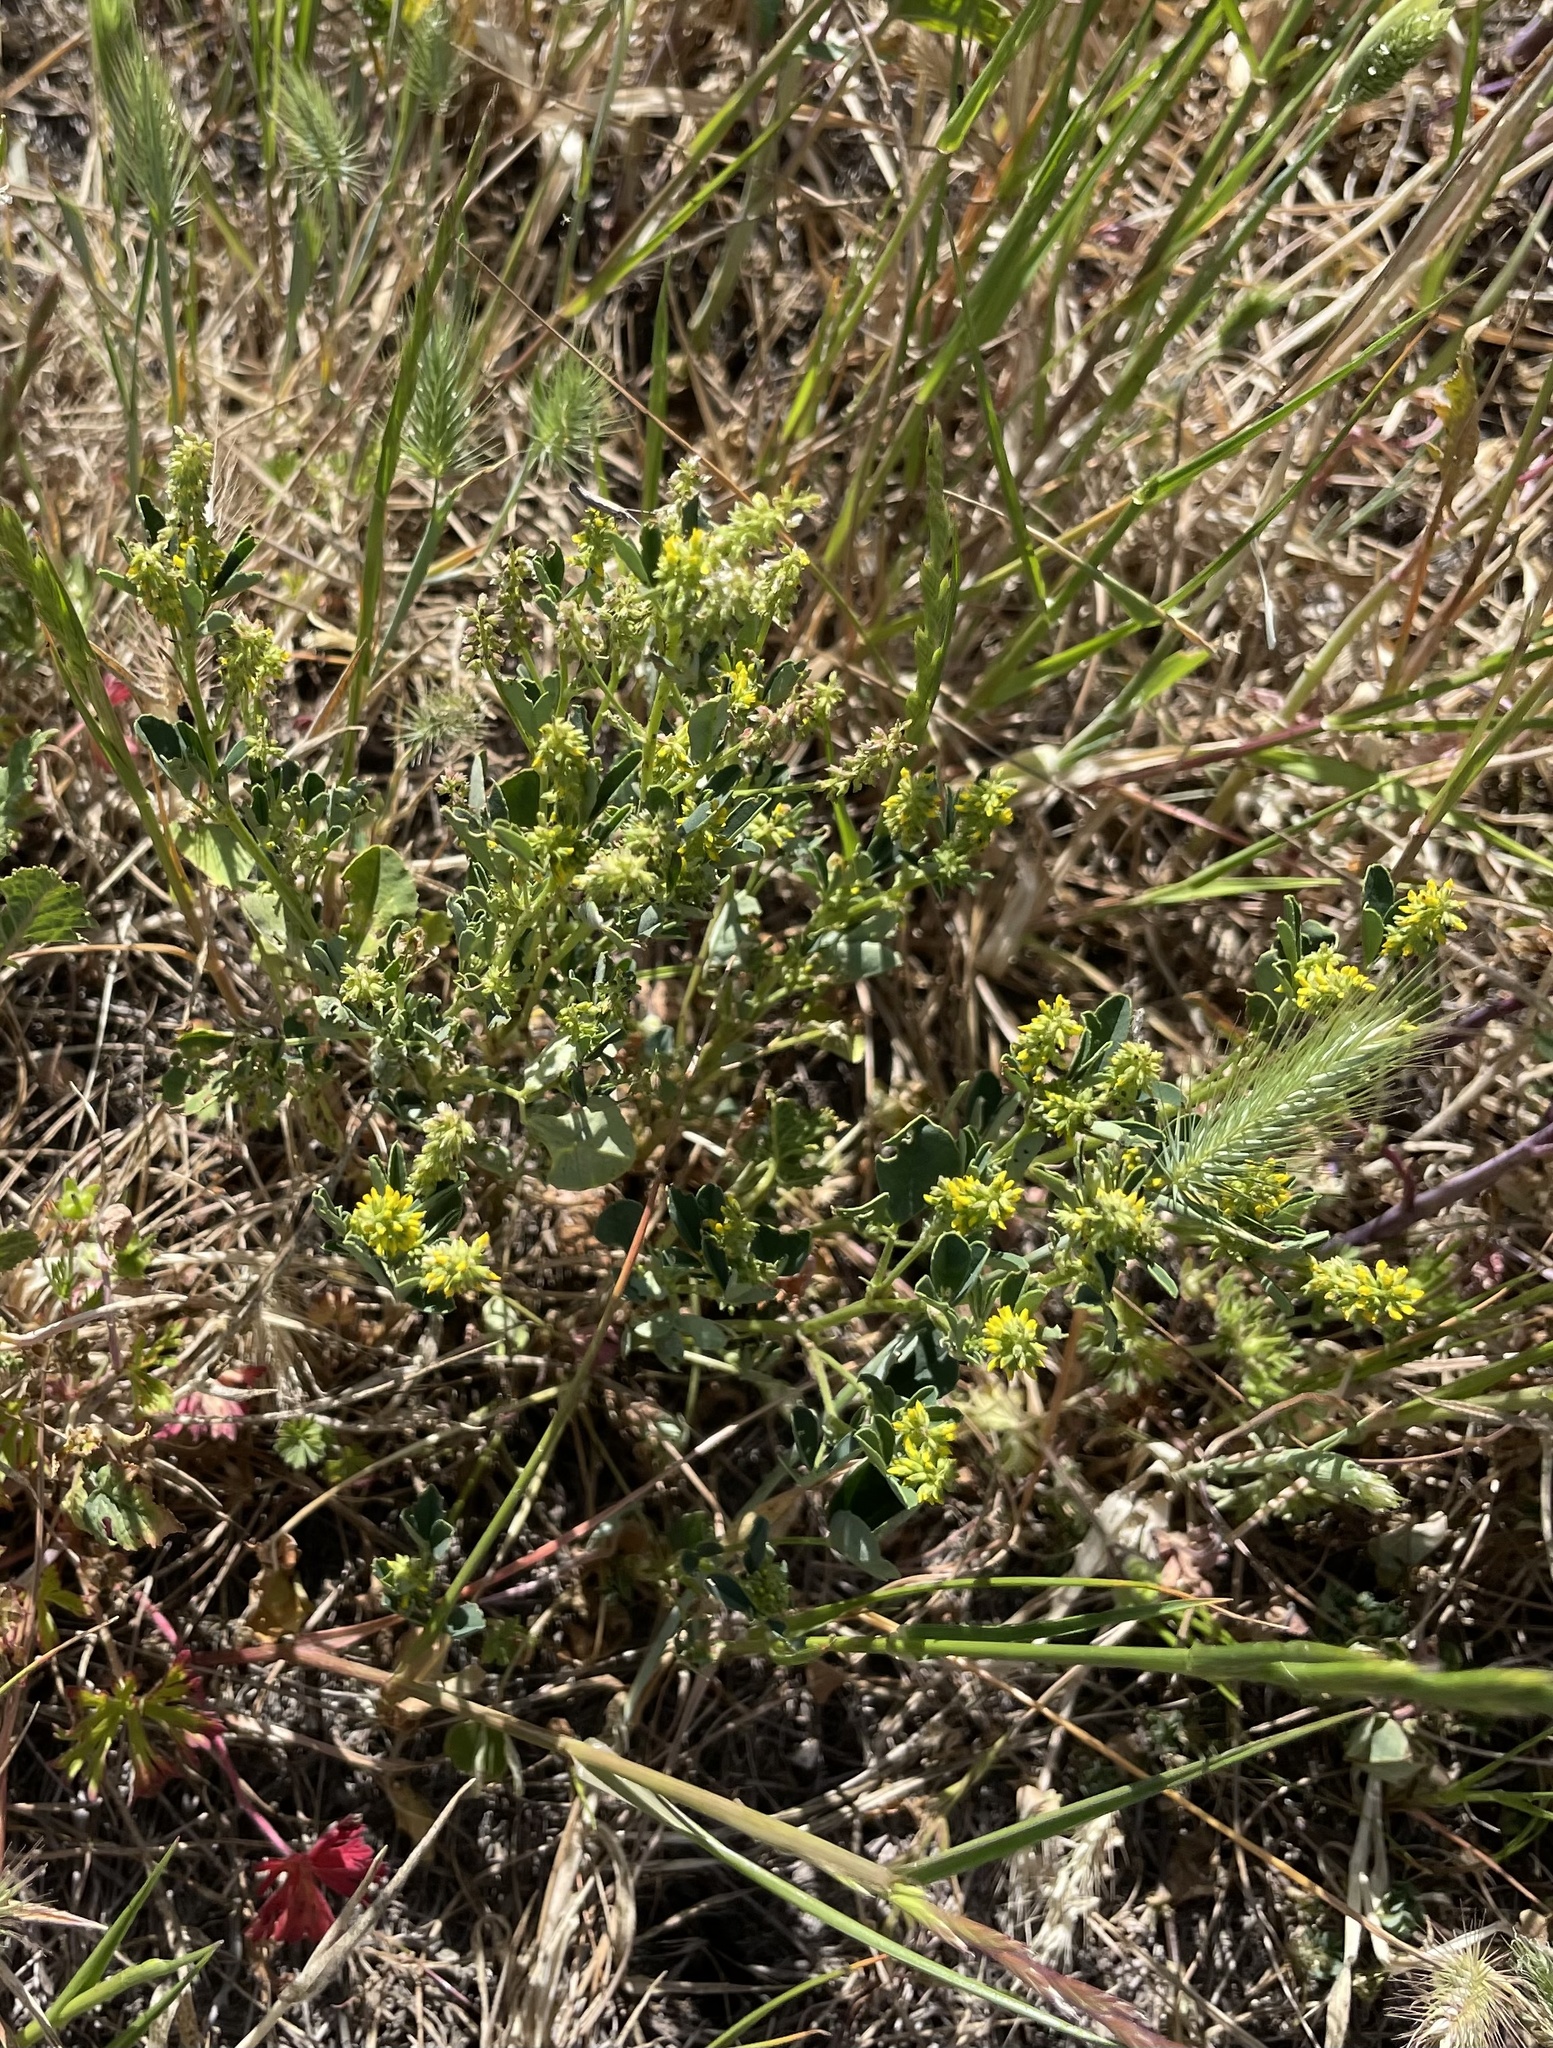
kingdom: Plantae
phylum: Tracheophyta
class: Magnoliopsida
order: Fabales
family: Fabaceae
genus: Melilotus
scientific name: Melilotus indicus
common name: Small melilot
